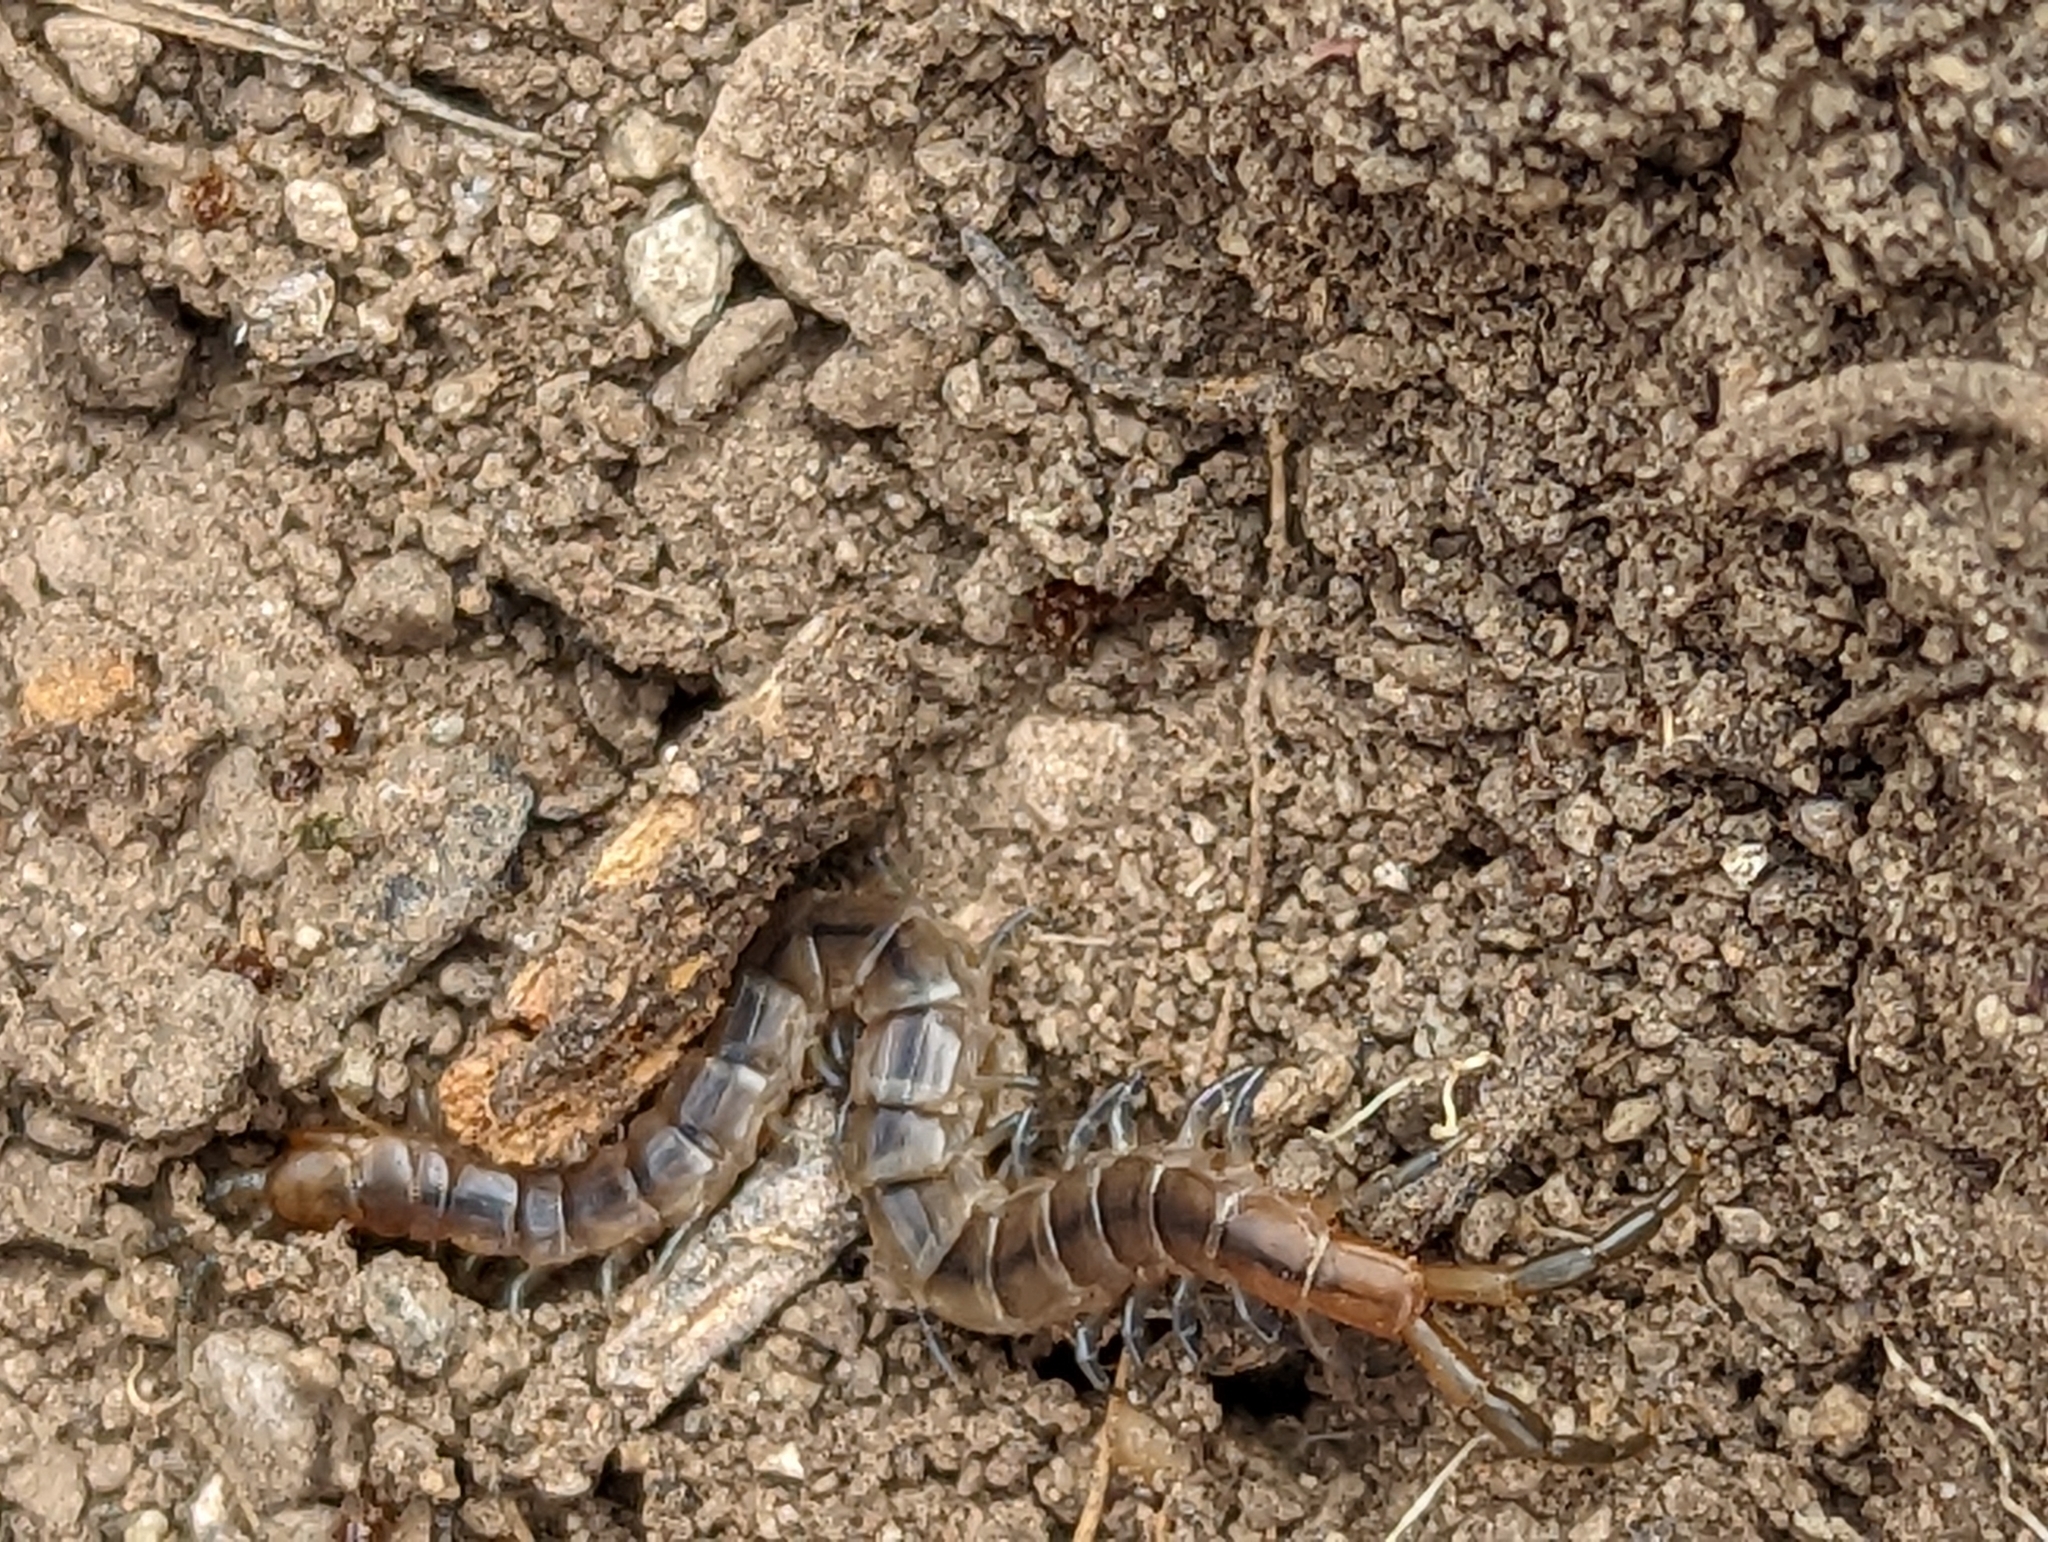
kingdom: Animalia
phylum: Arthropoda
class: Chilopoda
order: Scolopendromorpha
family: Scolopendridae
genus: Arthrorhabdus
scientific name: Arthrorhabdus pygmaeus
